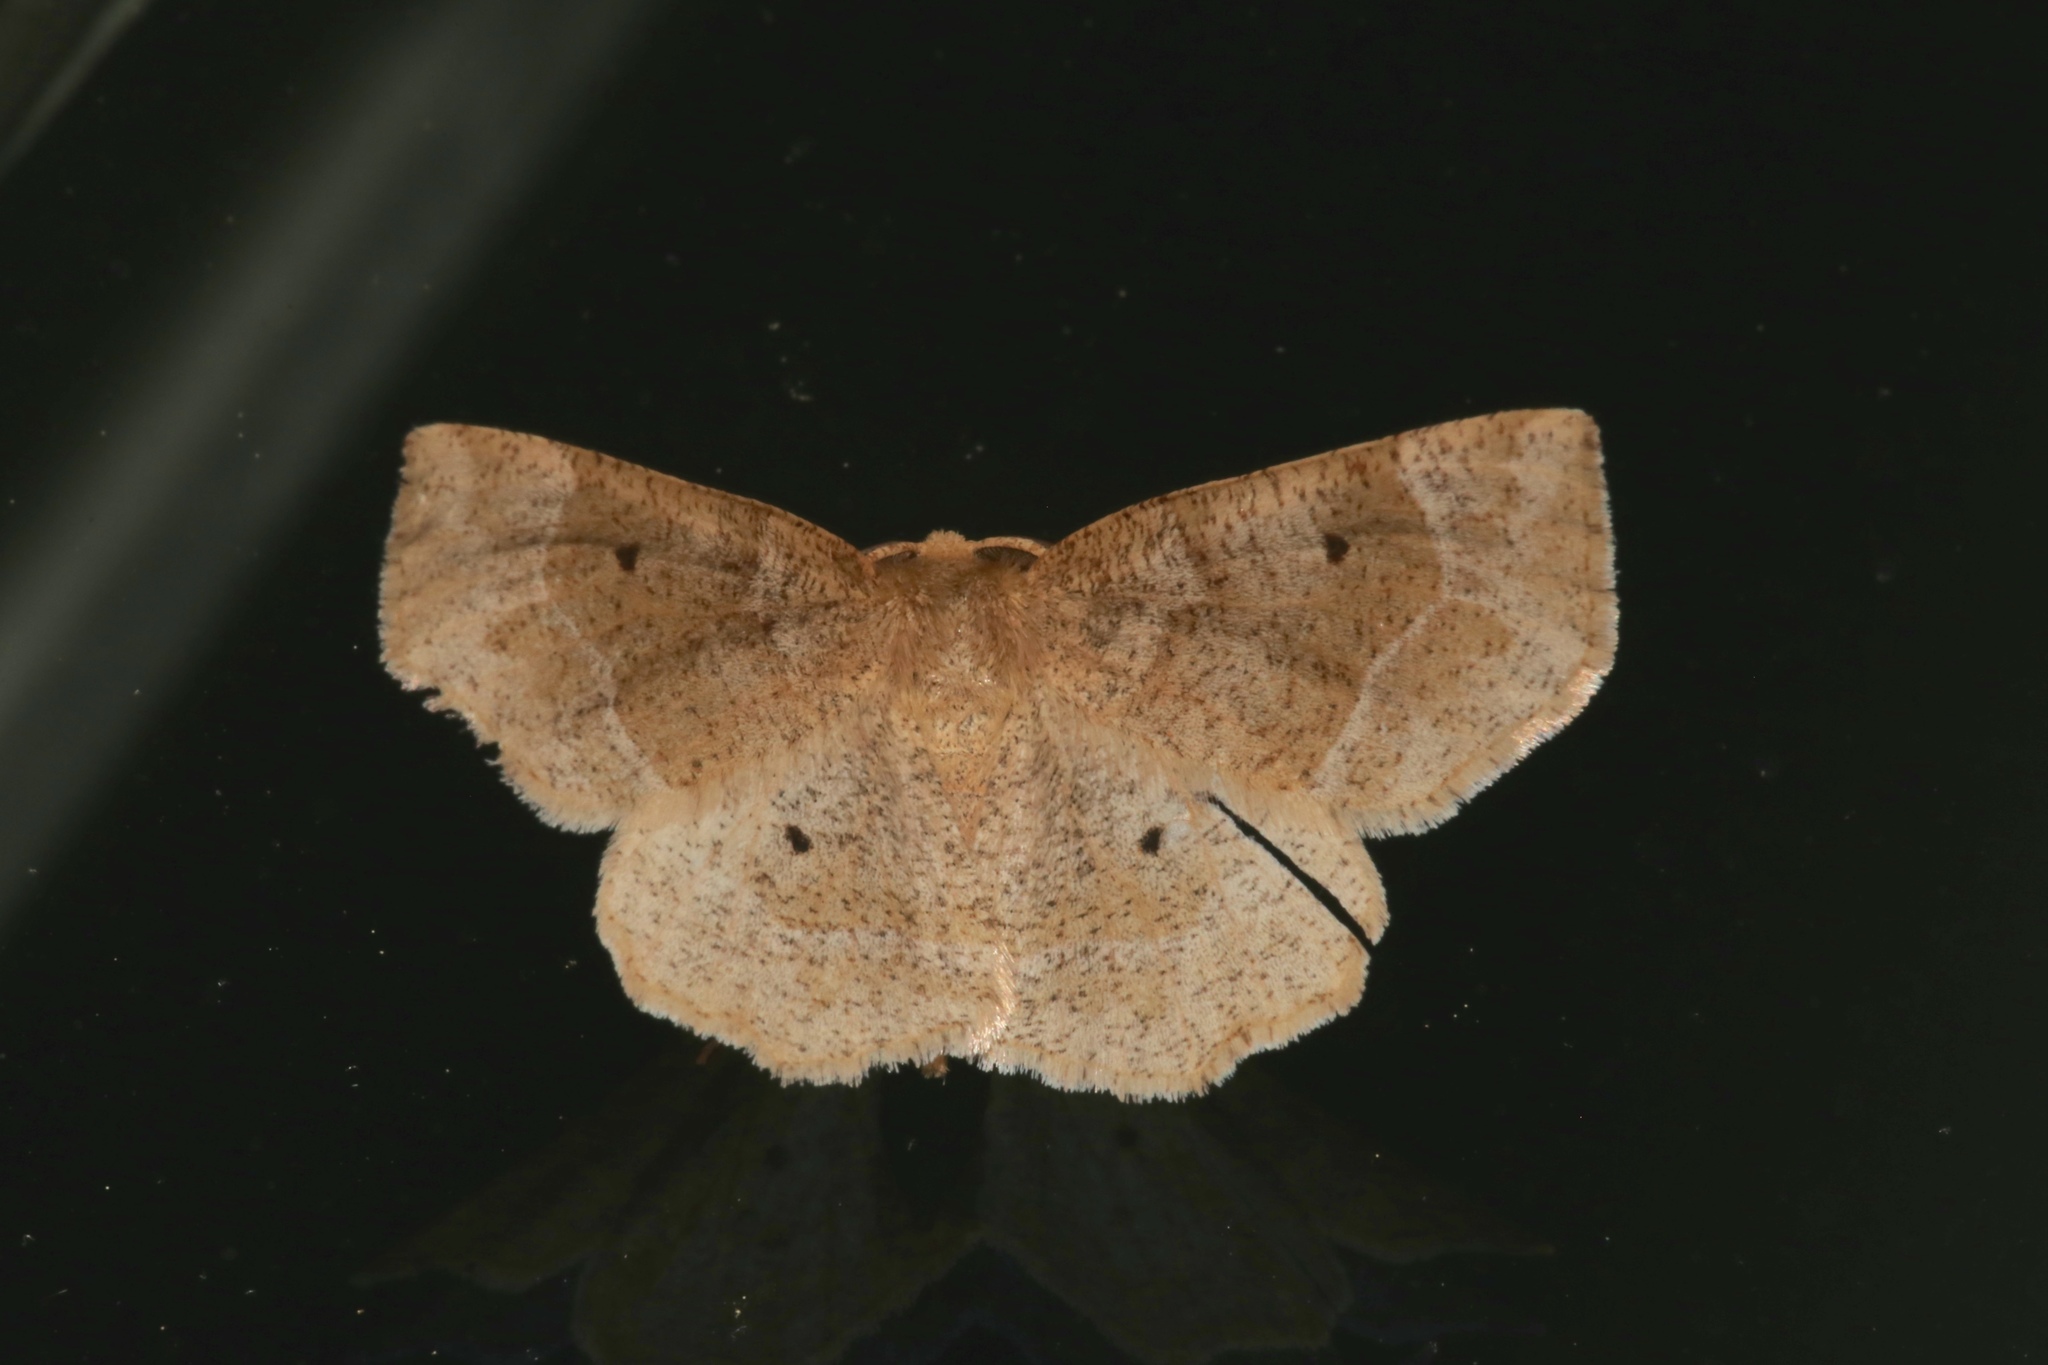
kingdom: Animalia
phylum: Arthropoda
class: Insecta
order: Lepidoptera
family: Geometridae
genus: Metarranthis
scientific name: Metarranthis indeclinata
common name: Pale metarranthis
